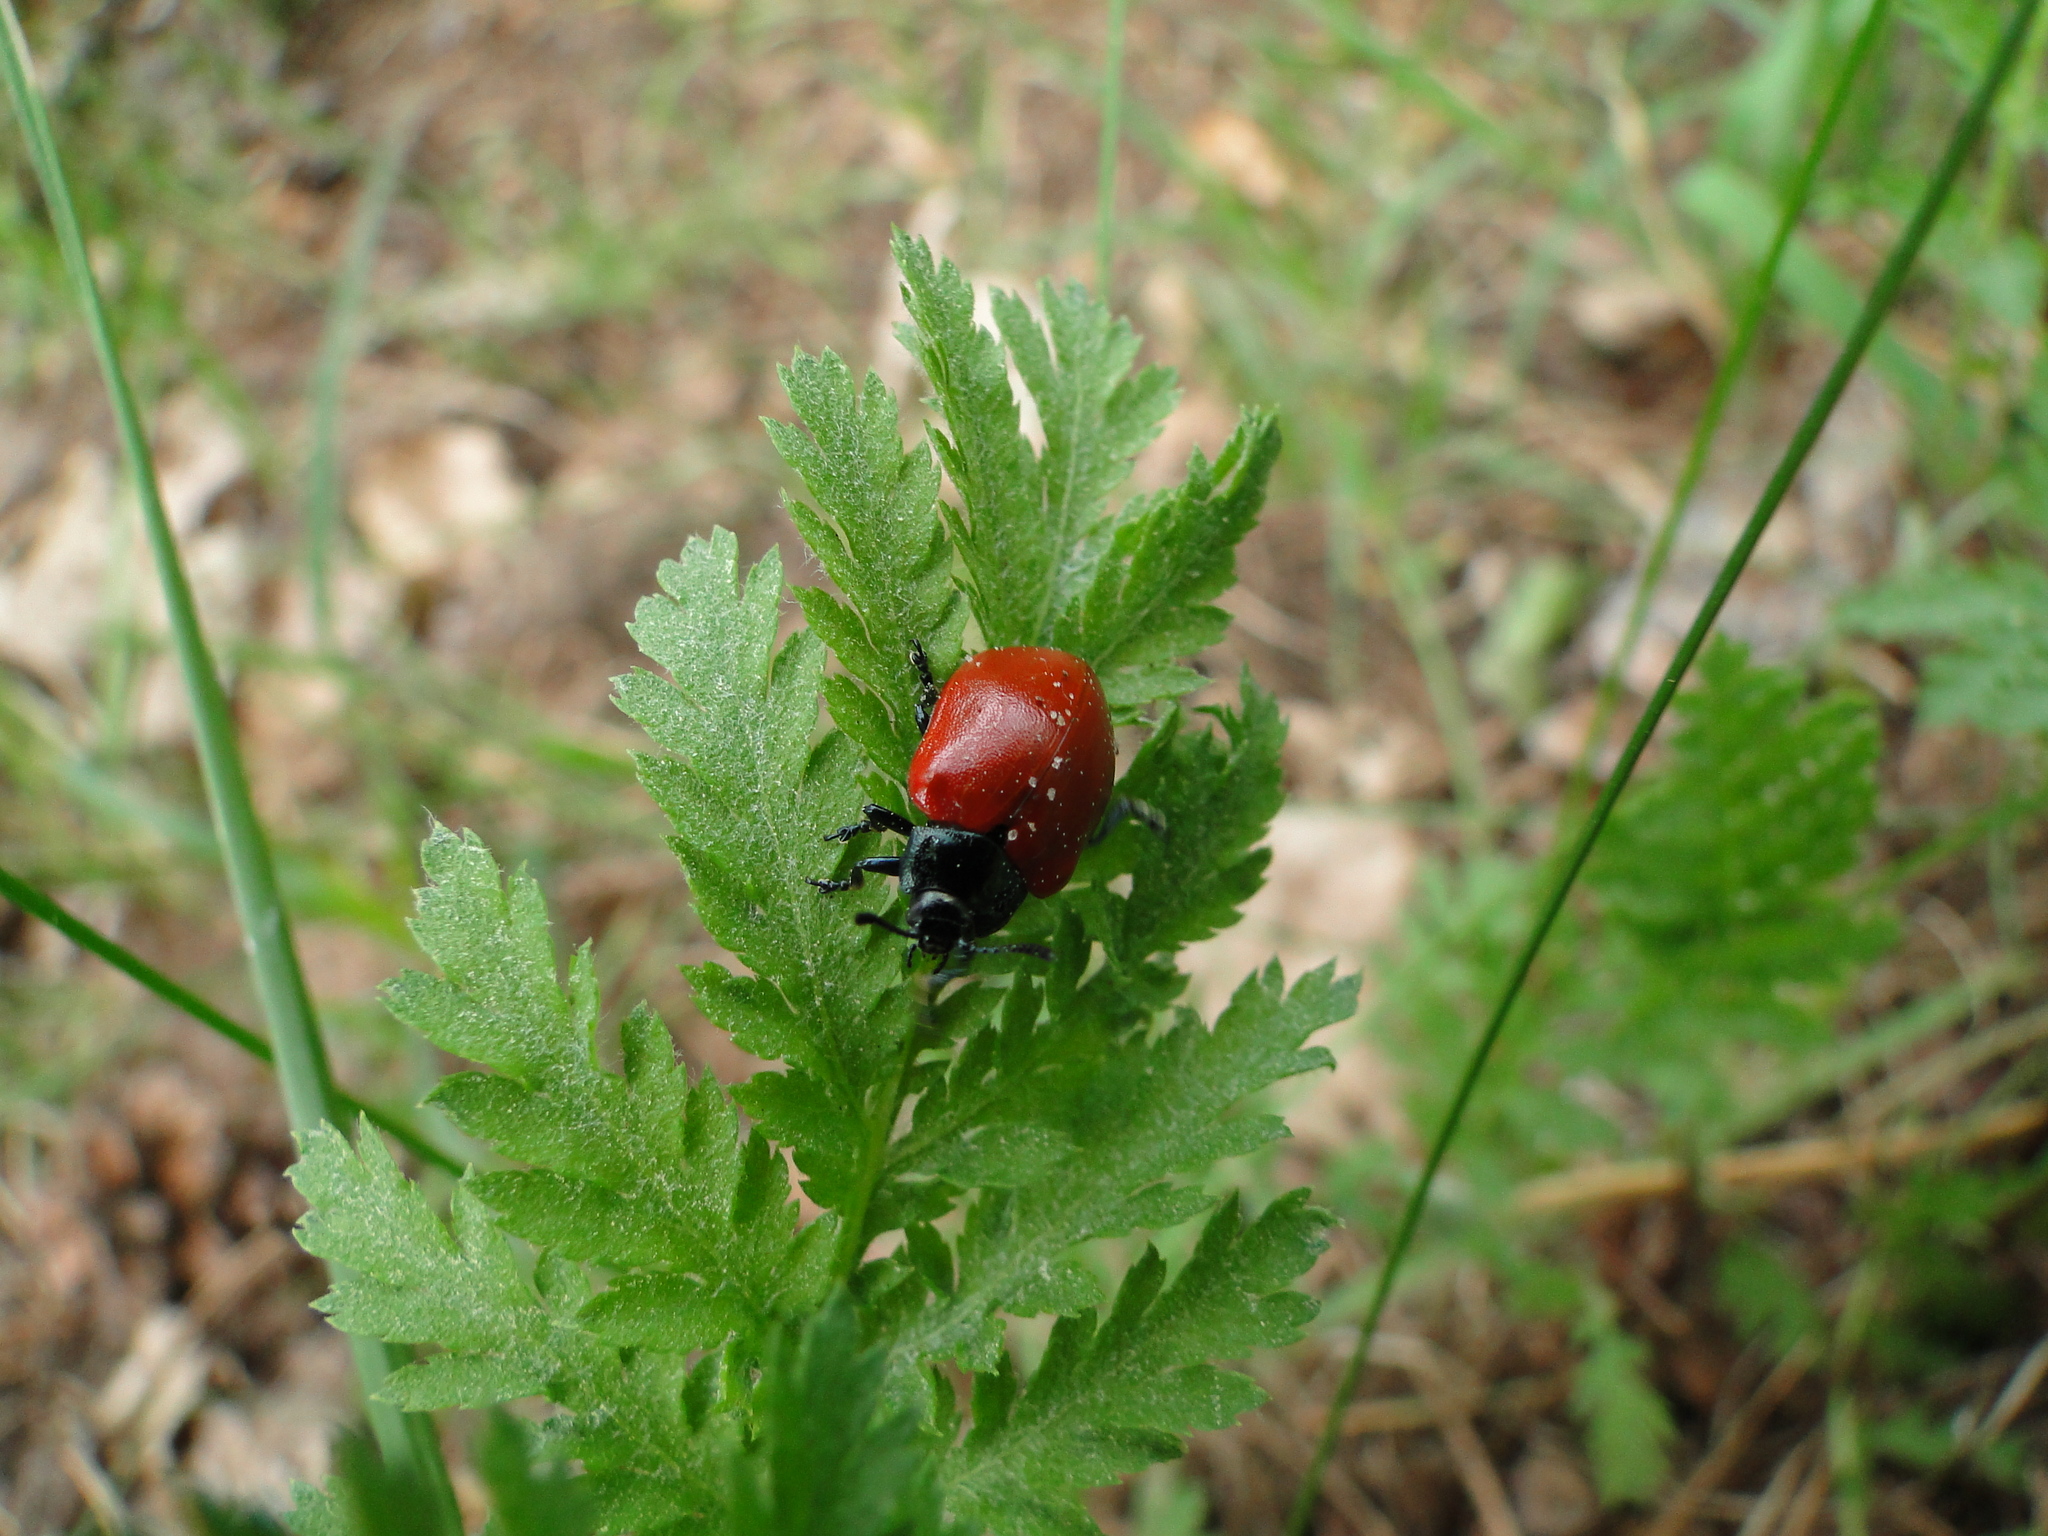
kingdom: Animalia
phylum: Arthropoda
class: Insecta
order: Coleoptera
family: Chrysomelidae
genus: Chrysomela
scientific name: Chrysomela populi
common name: Red poplar leaf beetle
